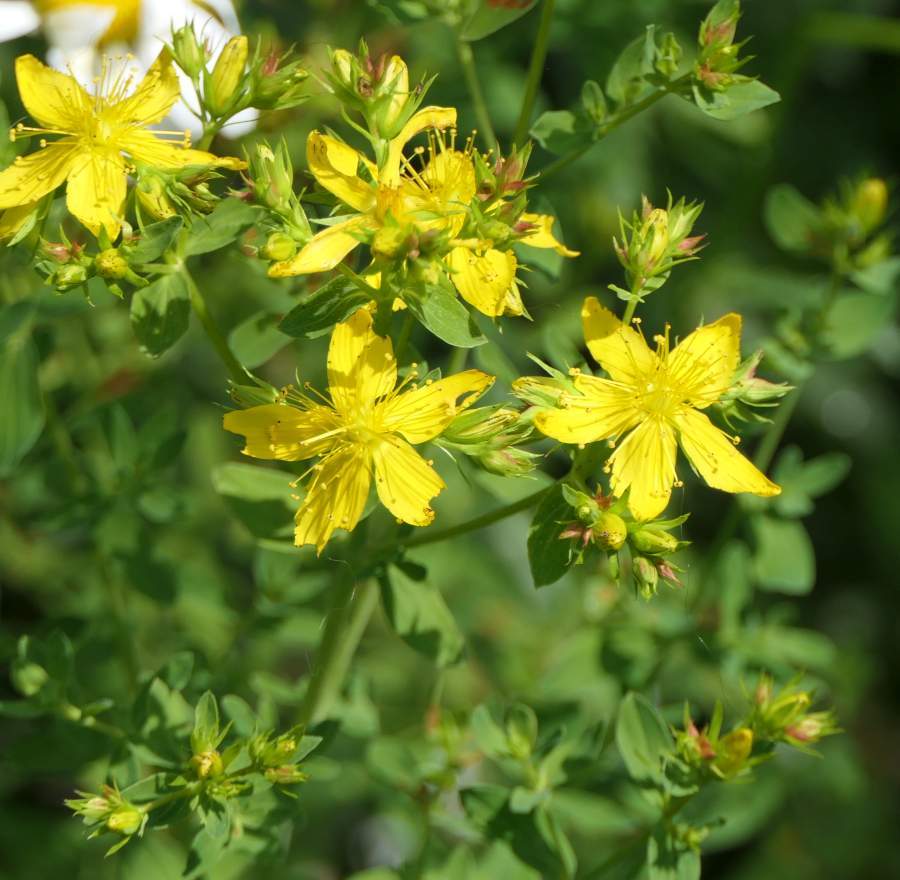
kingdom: Plantae
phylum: Tracheophyta
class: Magnoliopsida
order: Malpighiales
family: Hypericaceae
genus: Hypericum
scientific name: Hypericum perforatum
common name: Common st. johnswort
